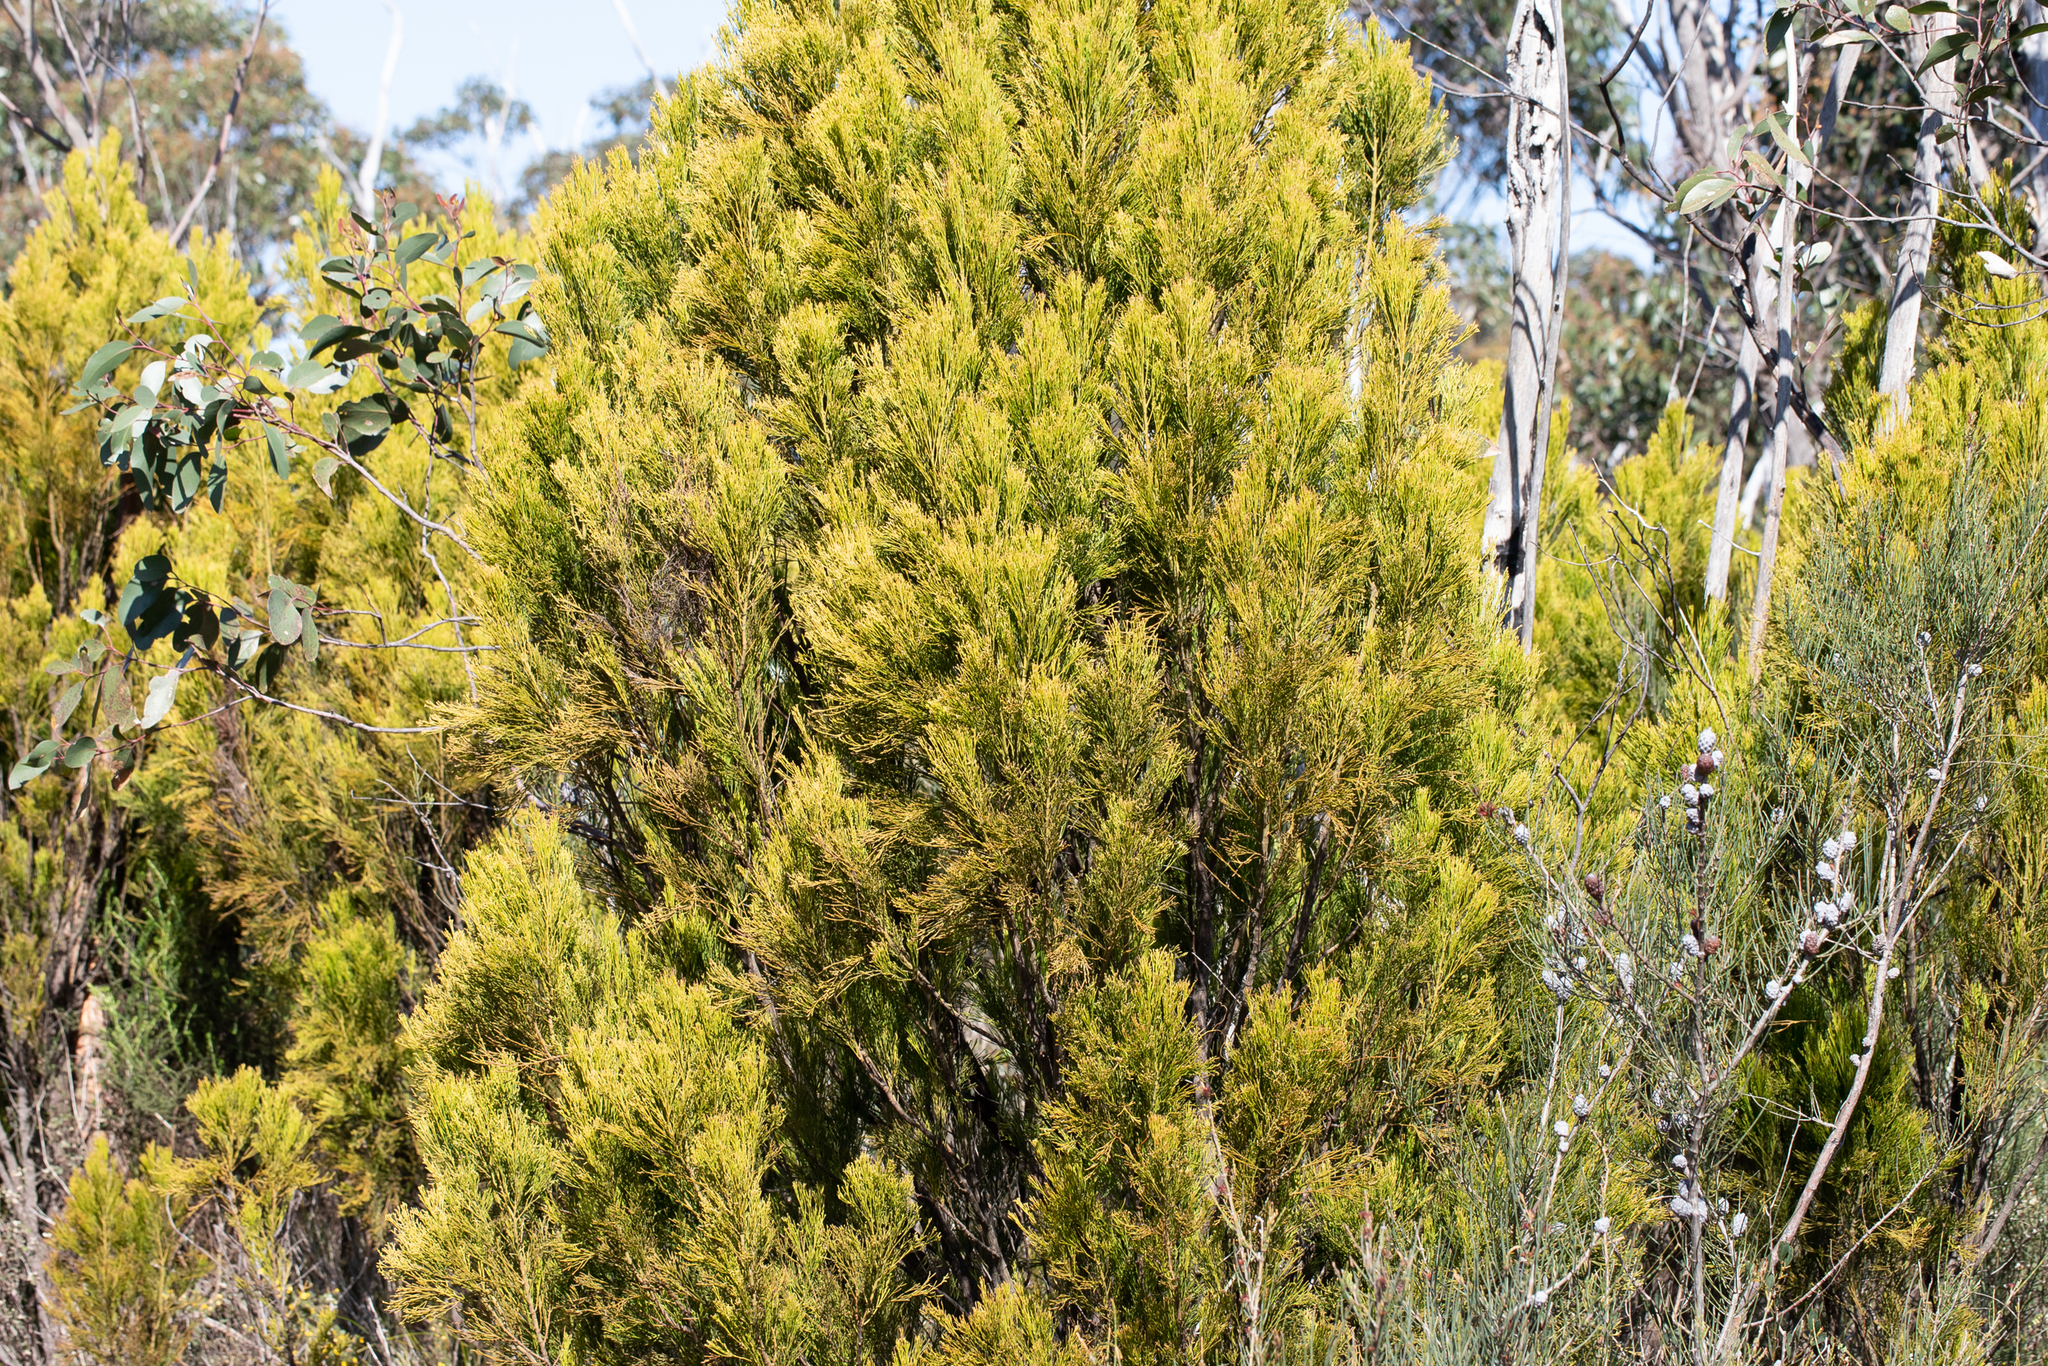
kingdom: Plantae
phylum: Tracheophyta
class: Magnoliopsida
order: Santalales
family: Santalaceae
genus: Exocarpos
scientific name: Exocarpos cupressiformis
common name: Cherry ballart
